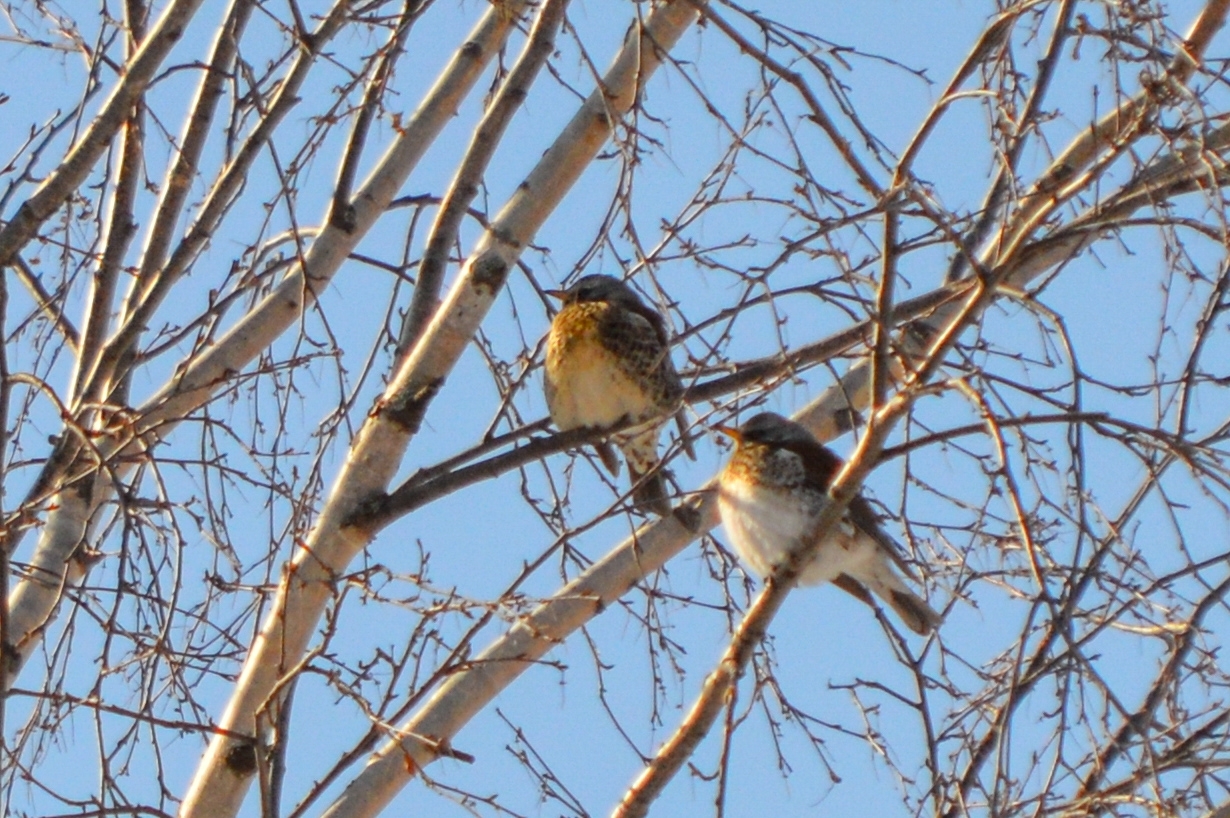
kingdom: Animalia
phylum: Chordata
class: Aves
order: Passeriformes
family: Turdidae
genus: Turdus
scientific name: Turdus pilaris
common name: Fieldfare
